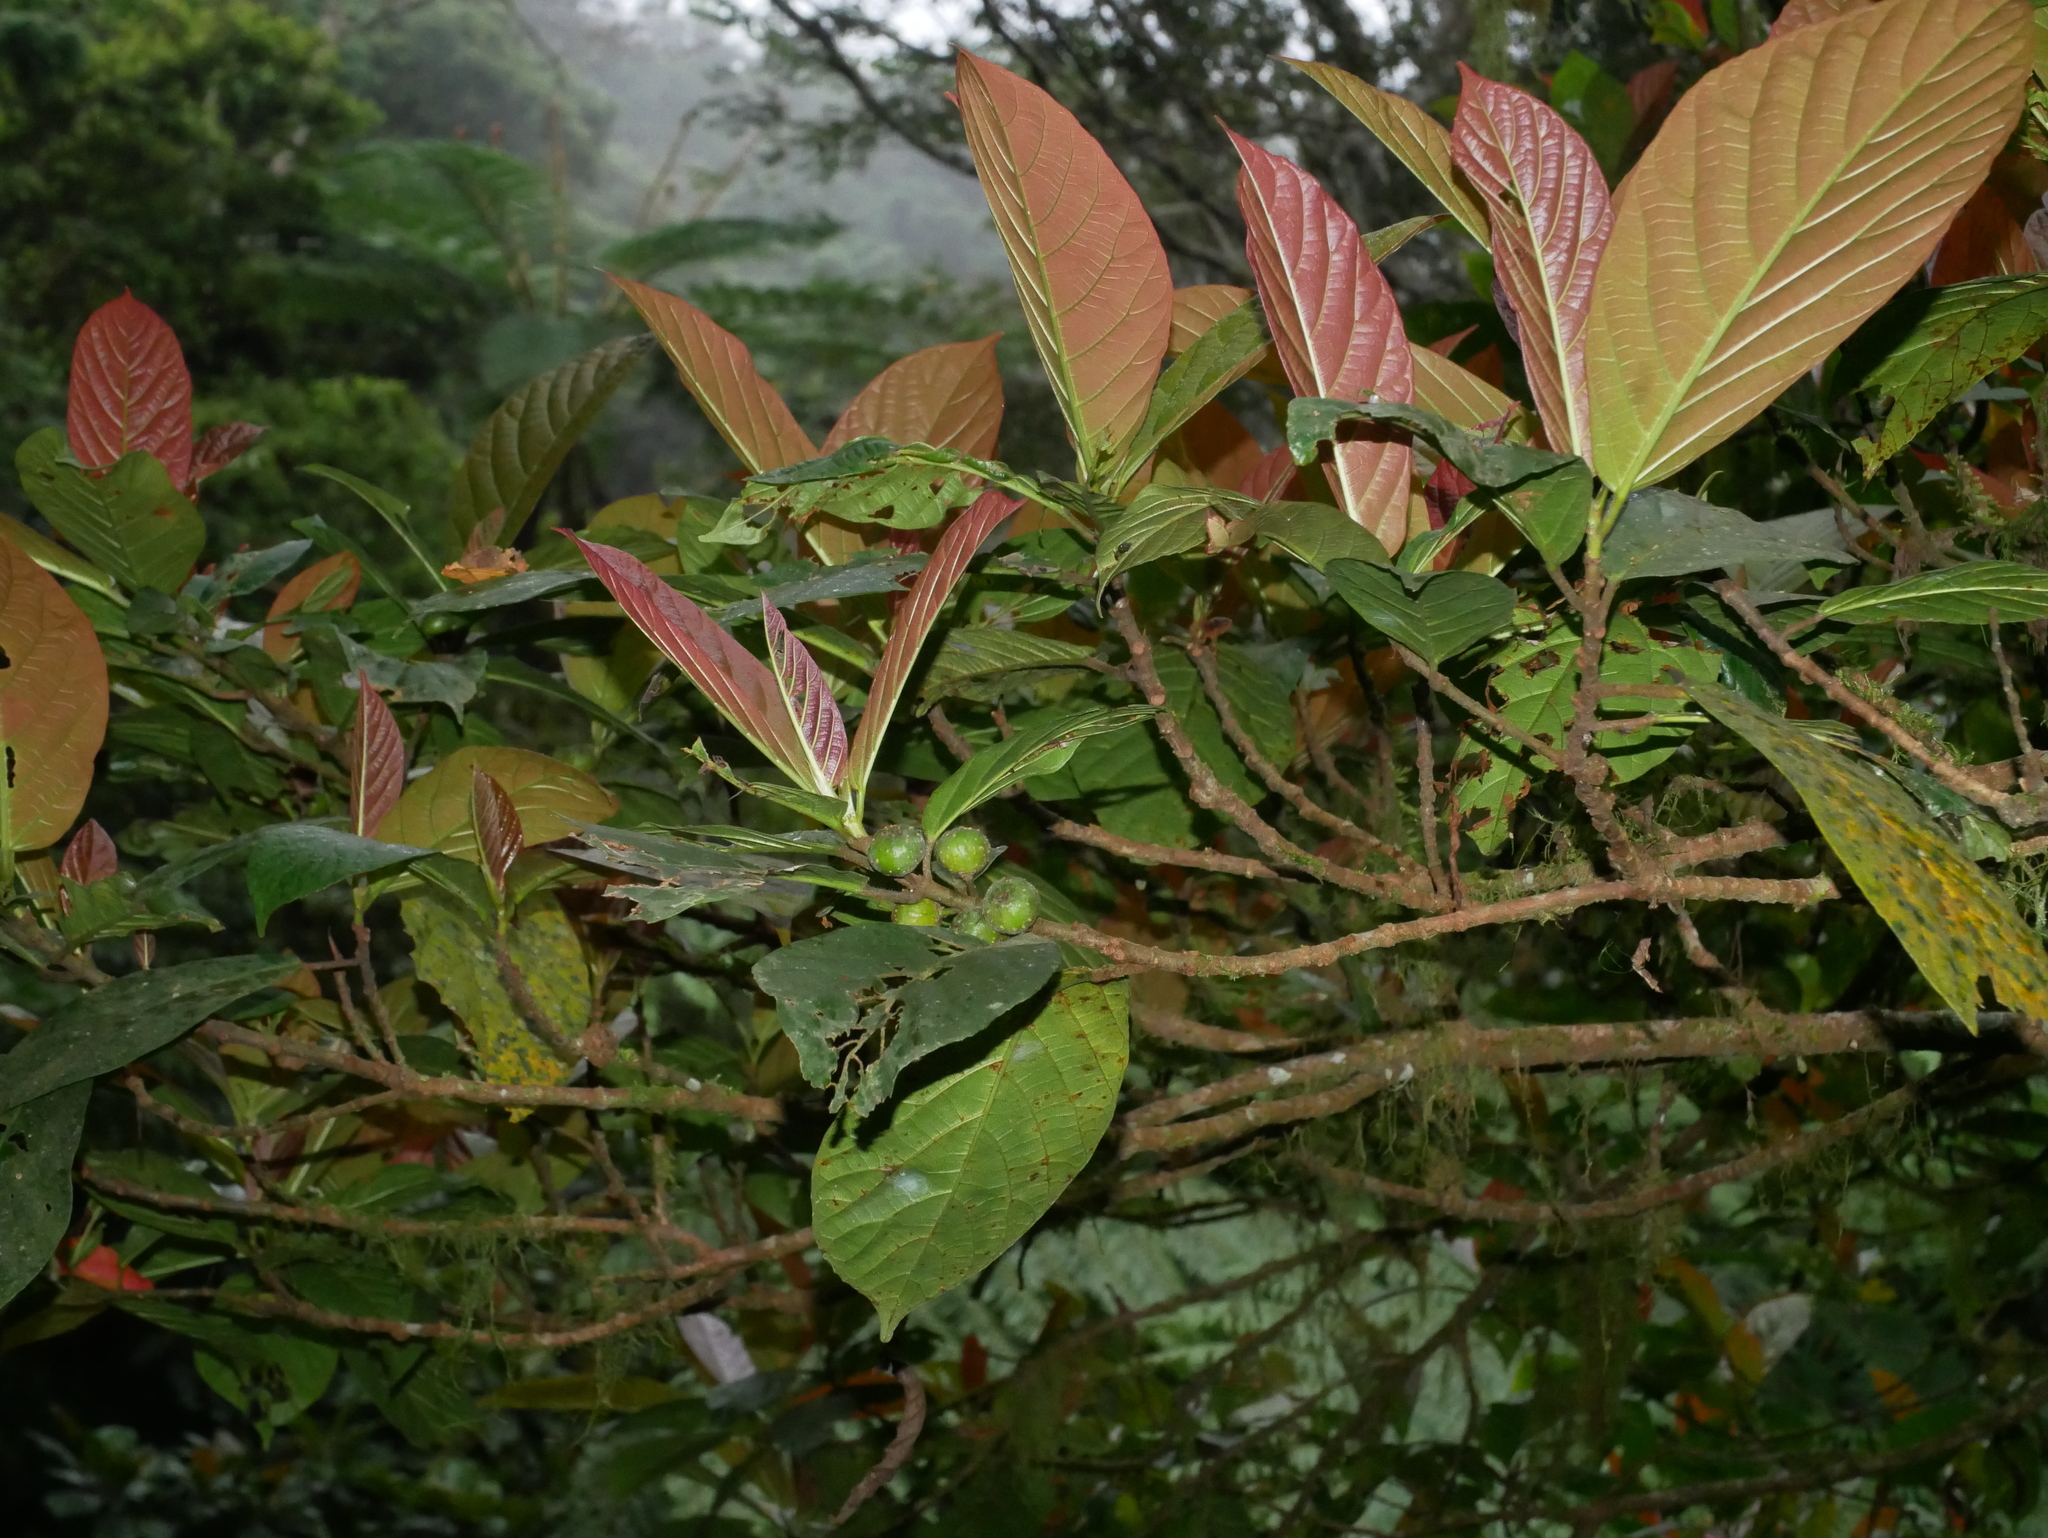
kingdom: Plantae
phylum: Tracheophyta
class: Magnoliopsida
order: Rosales
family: Moraceae
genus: Ficus
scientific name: Ficus benguetensis
